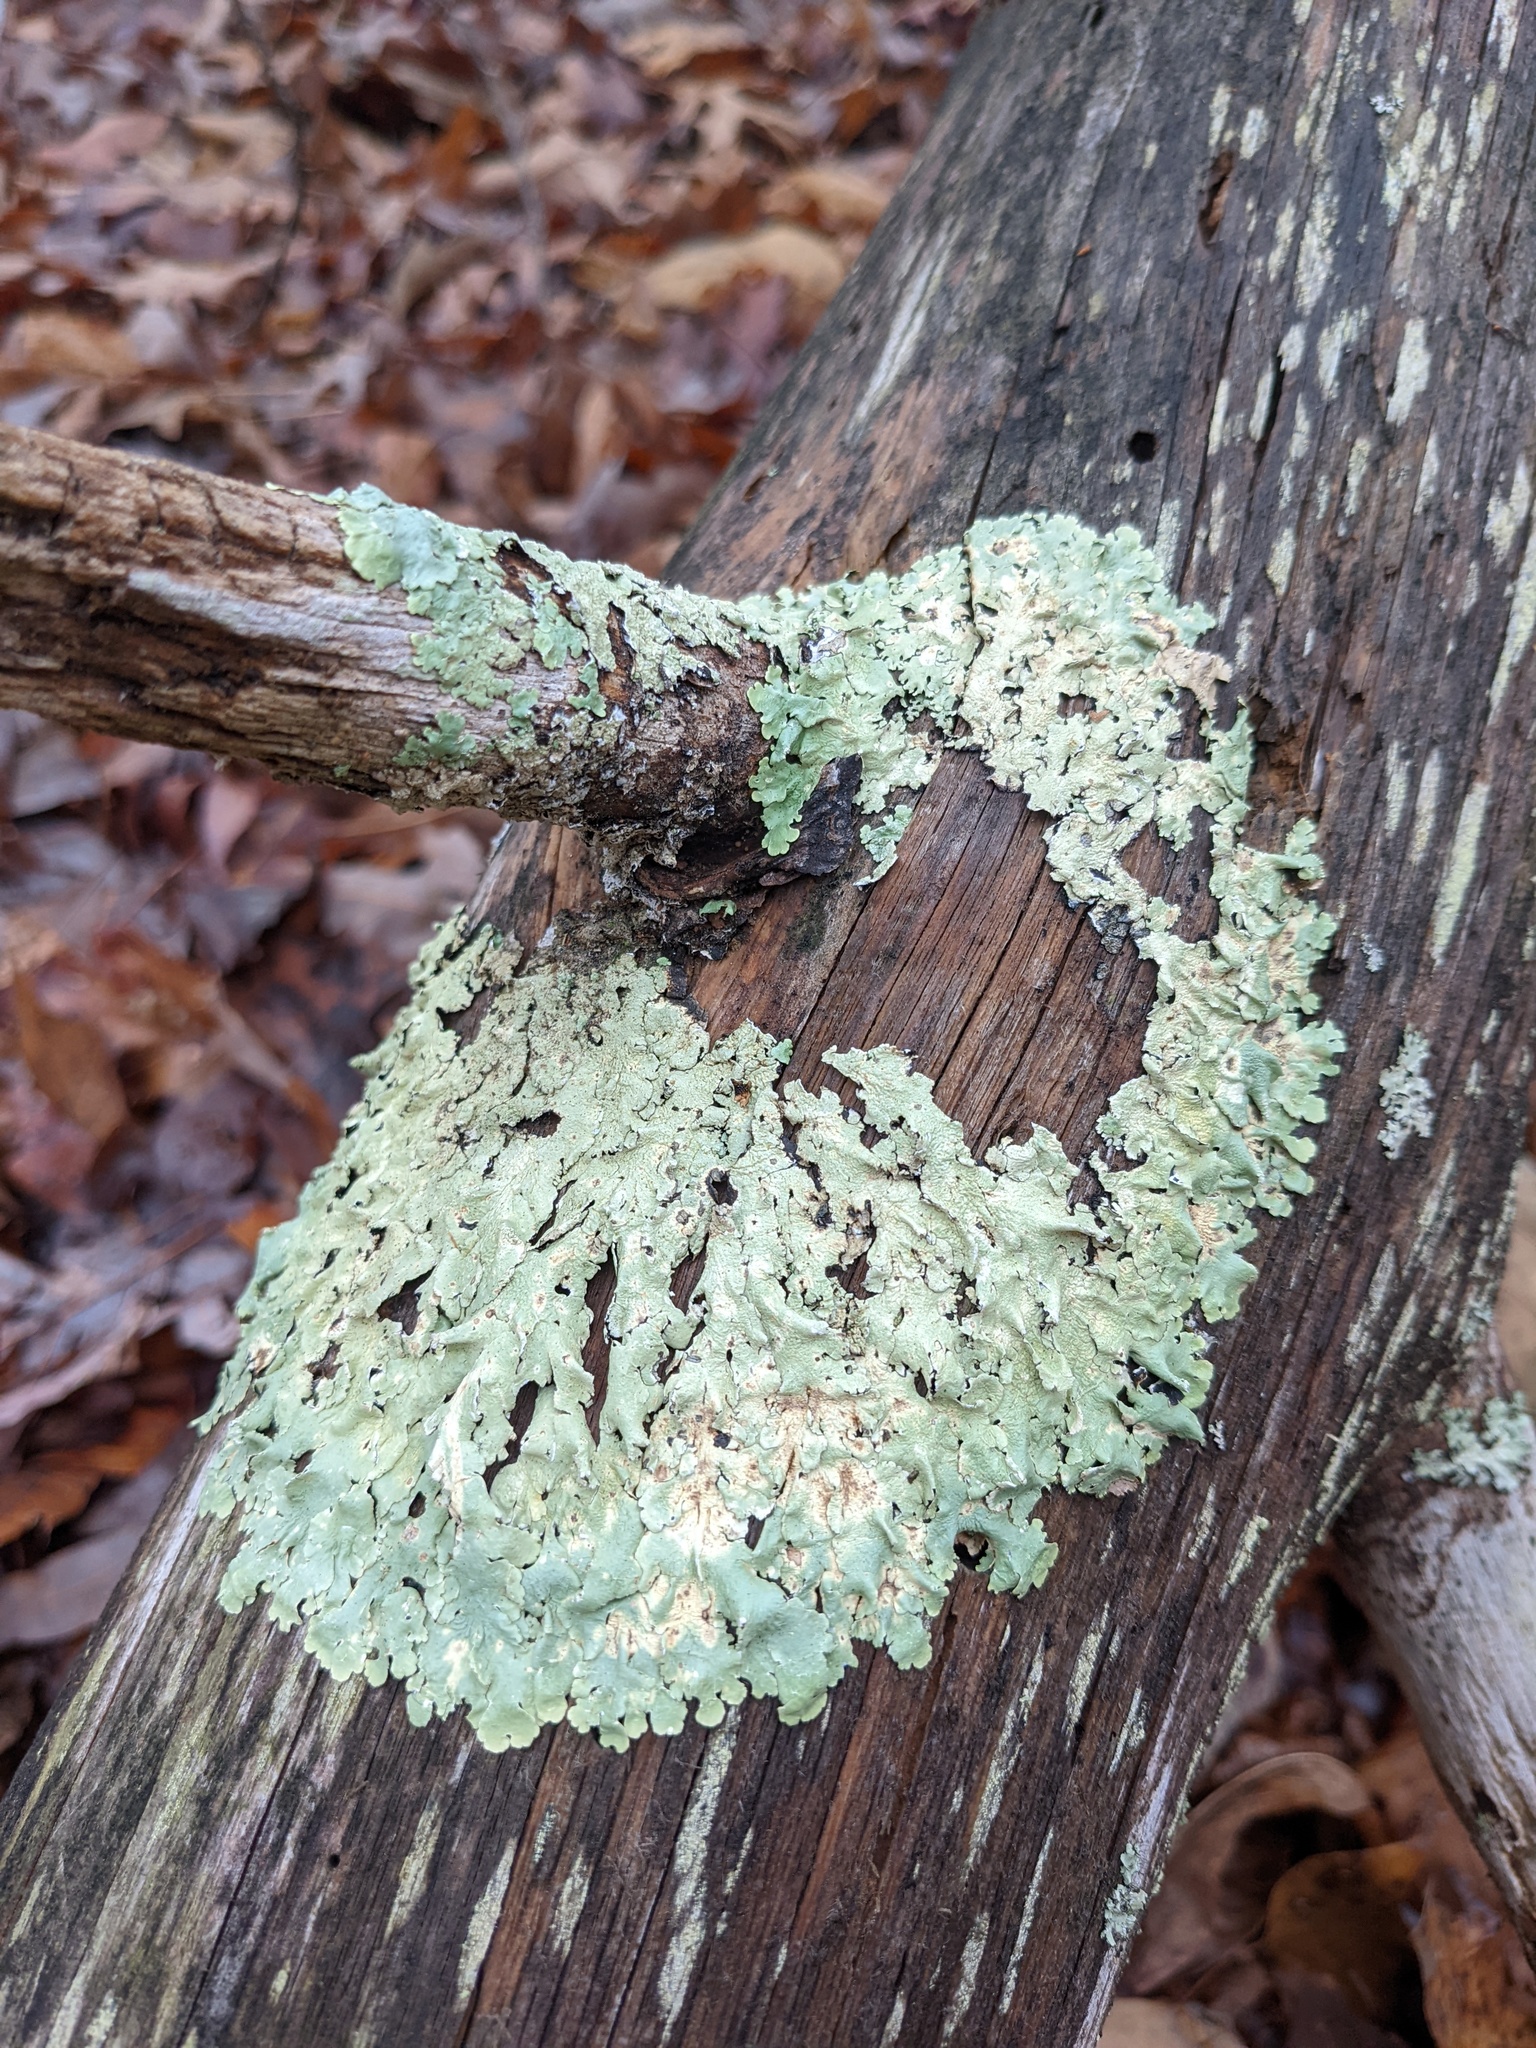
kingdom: Fungi
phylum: Ascomycota
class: Lecanoromycetes
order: Lecanorales
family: Parmeliaceae
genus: Flavoparmelia
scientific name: Flavoparmelia caperata
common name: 40-mile per hour lichen
